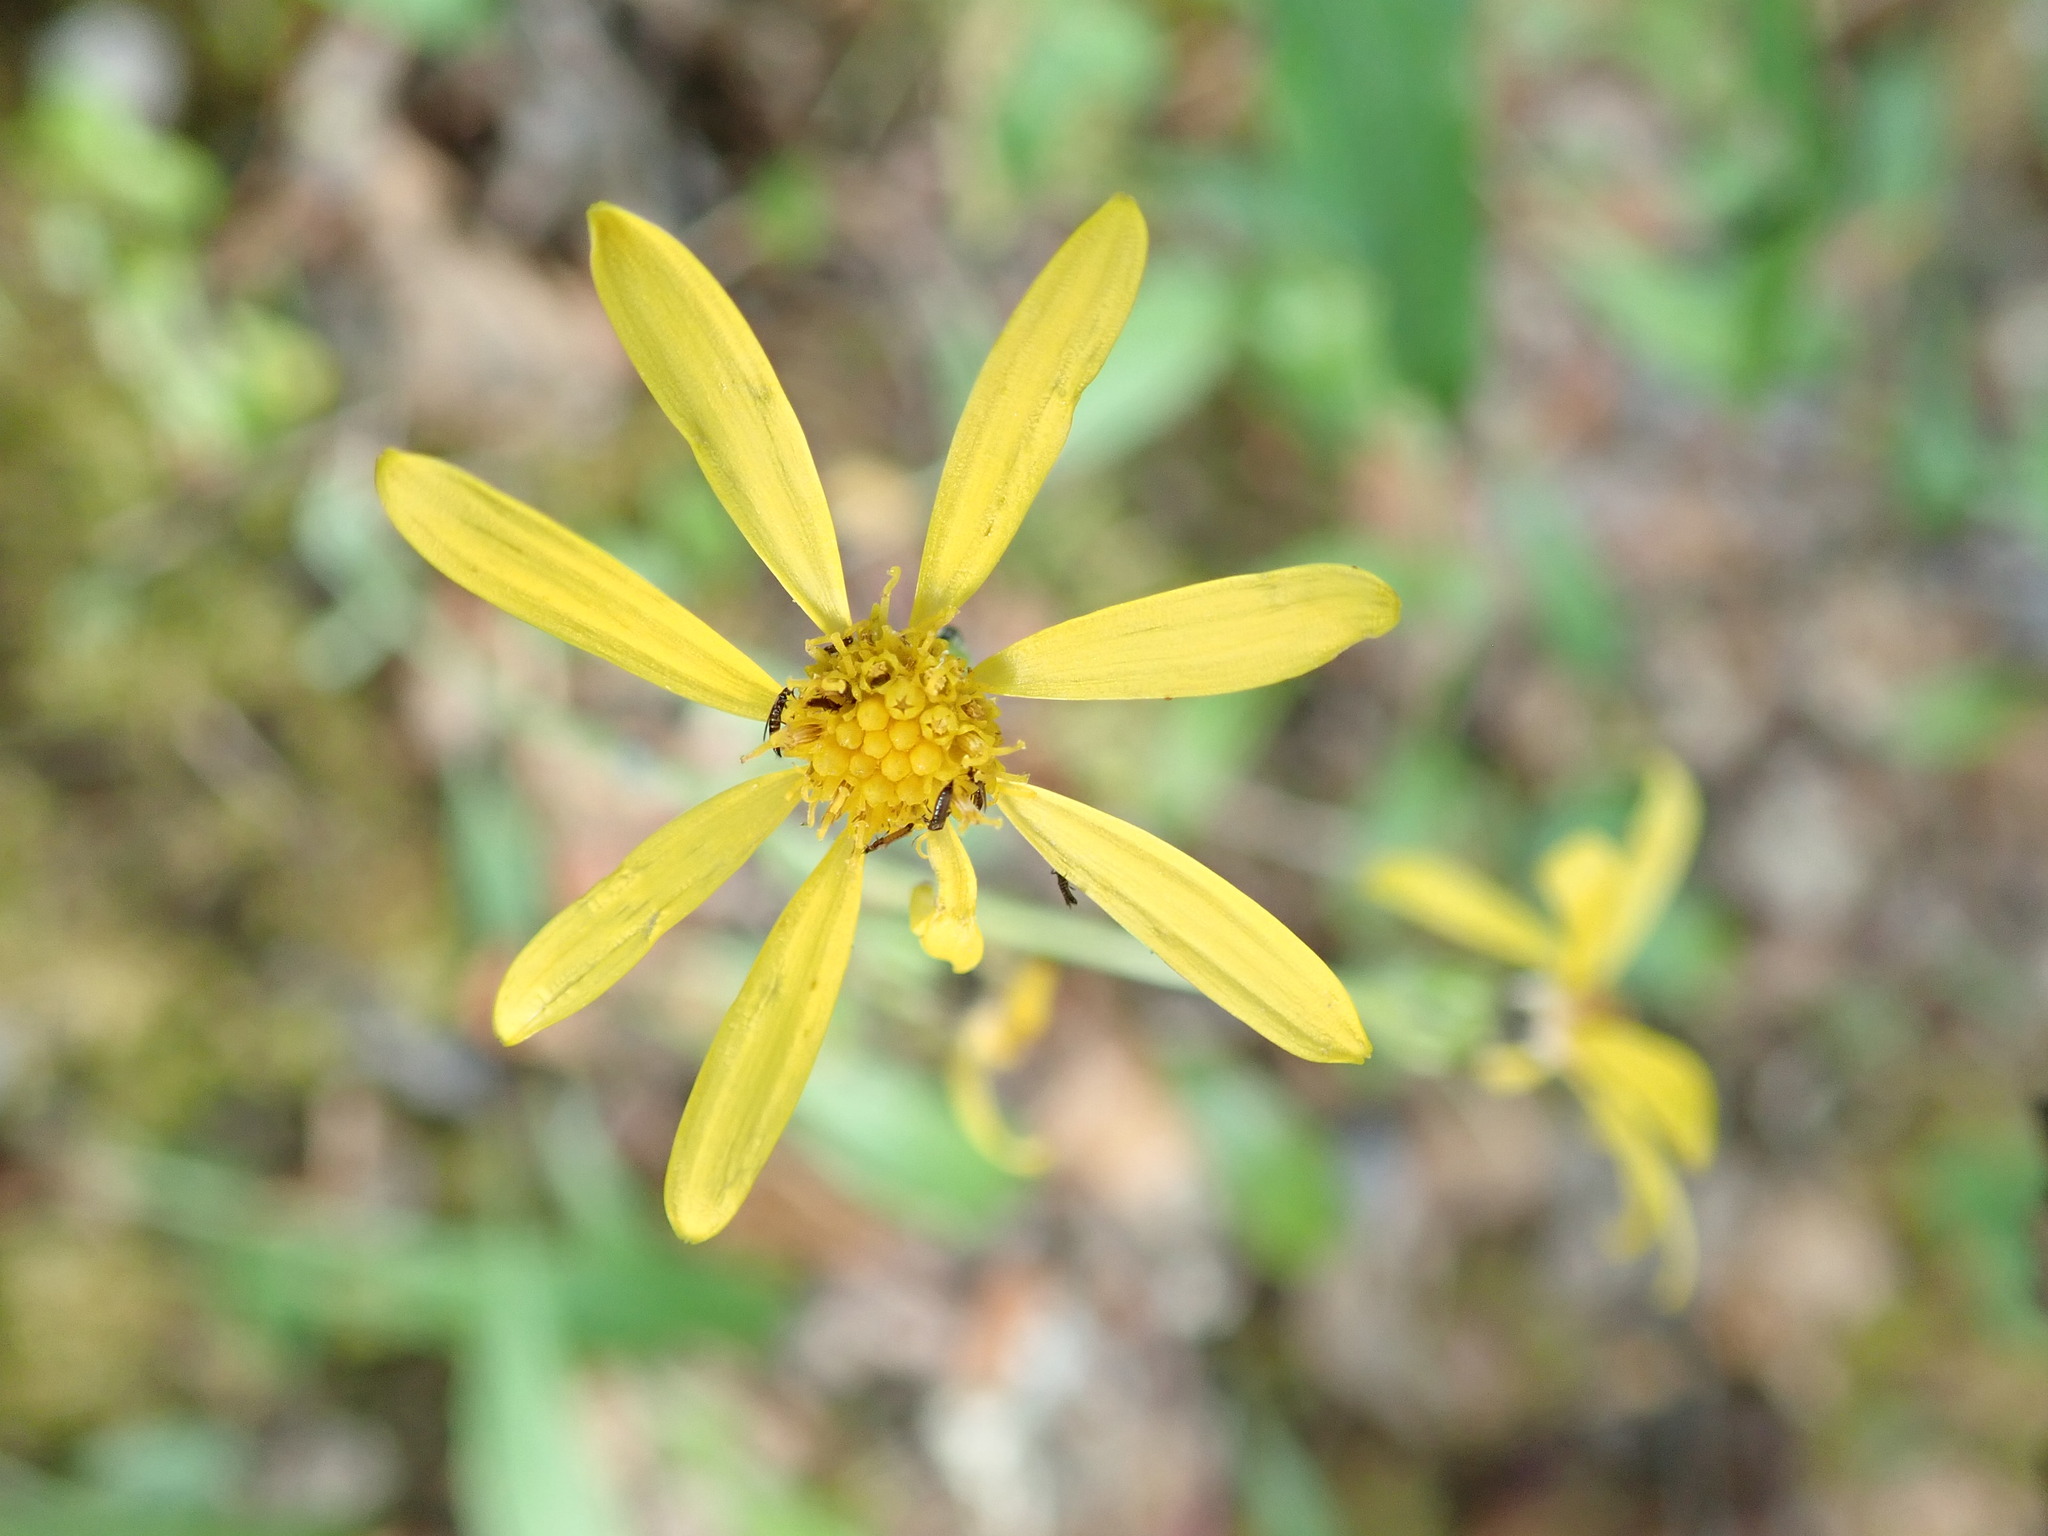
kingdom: Plantae
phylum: Tracheophyta
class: Magnoliopsida
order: Asterales
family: Asteraceae
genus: Senecio
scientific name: Senecio lugens
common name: Black-tip groundsel
